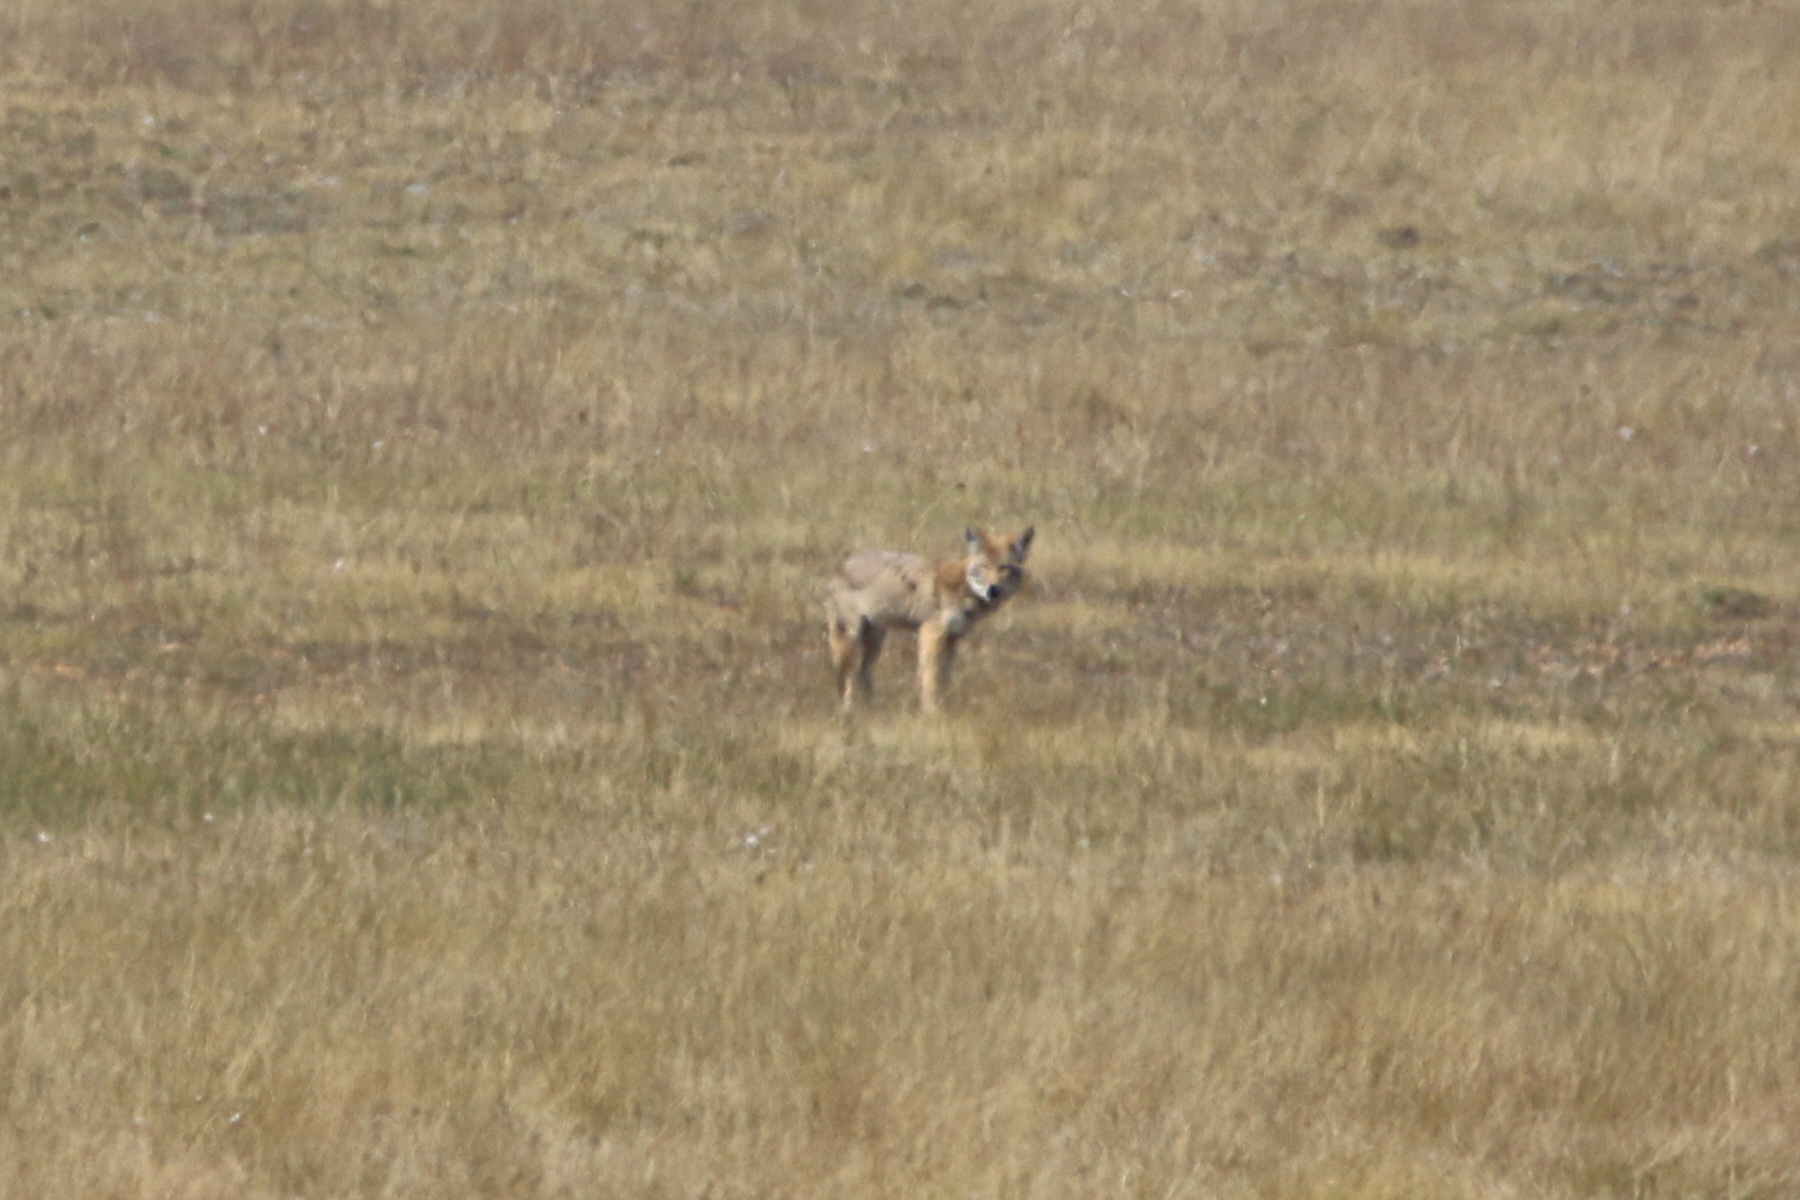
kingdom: Animalia
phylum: Chordata
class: Mammalia
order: Carnivora
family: Canidae
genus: Canis
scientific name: Canis latrans
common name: Coyote
